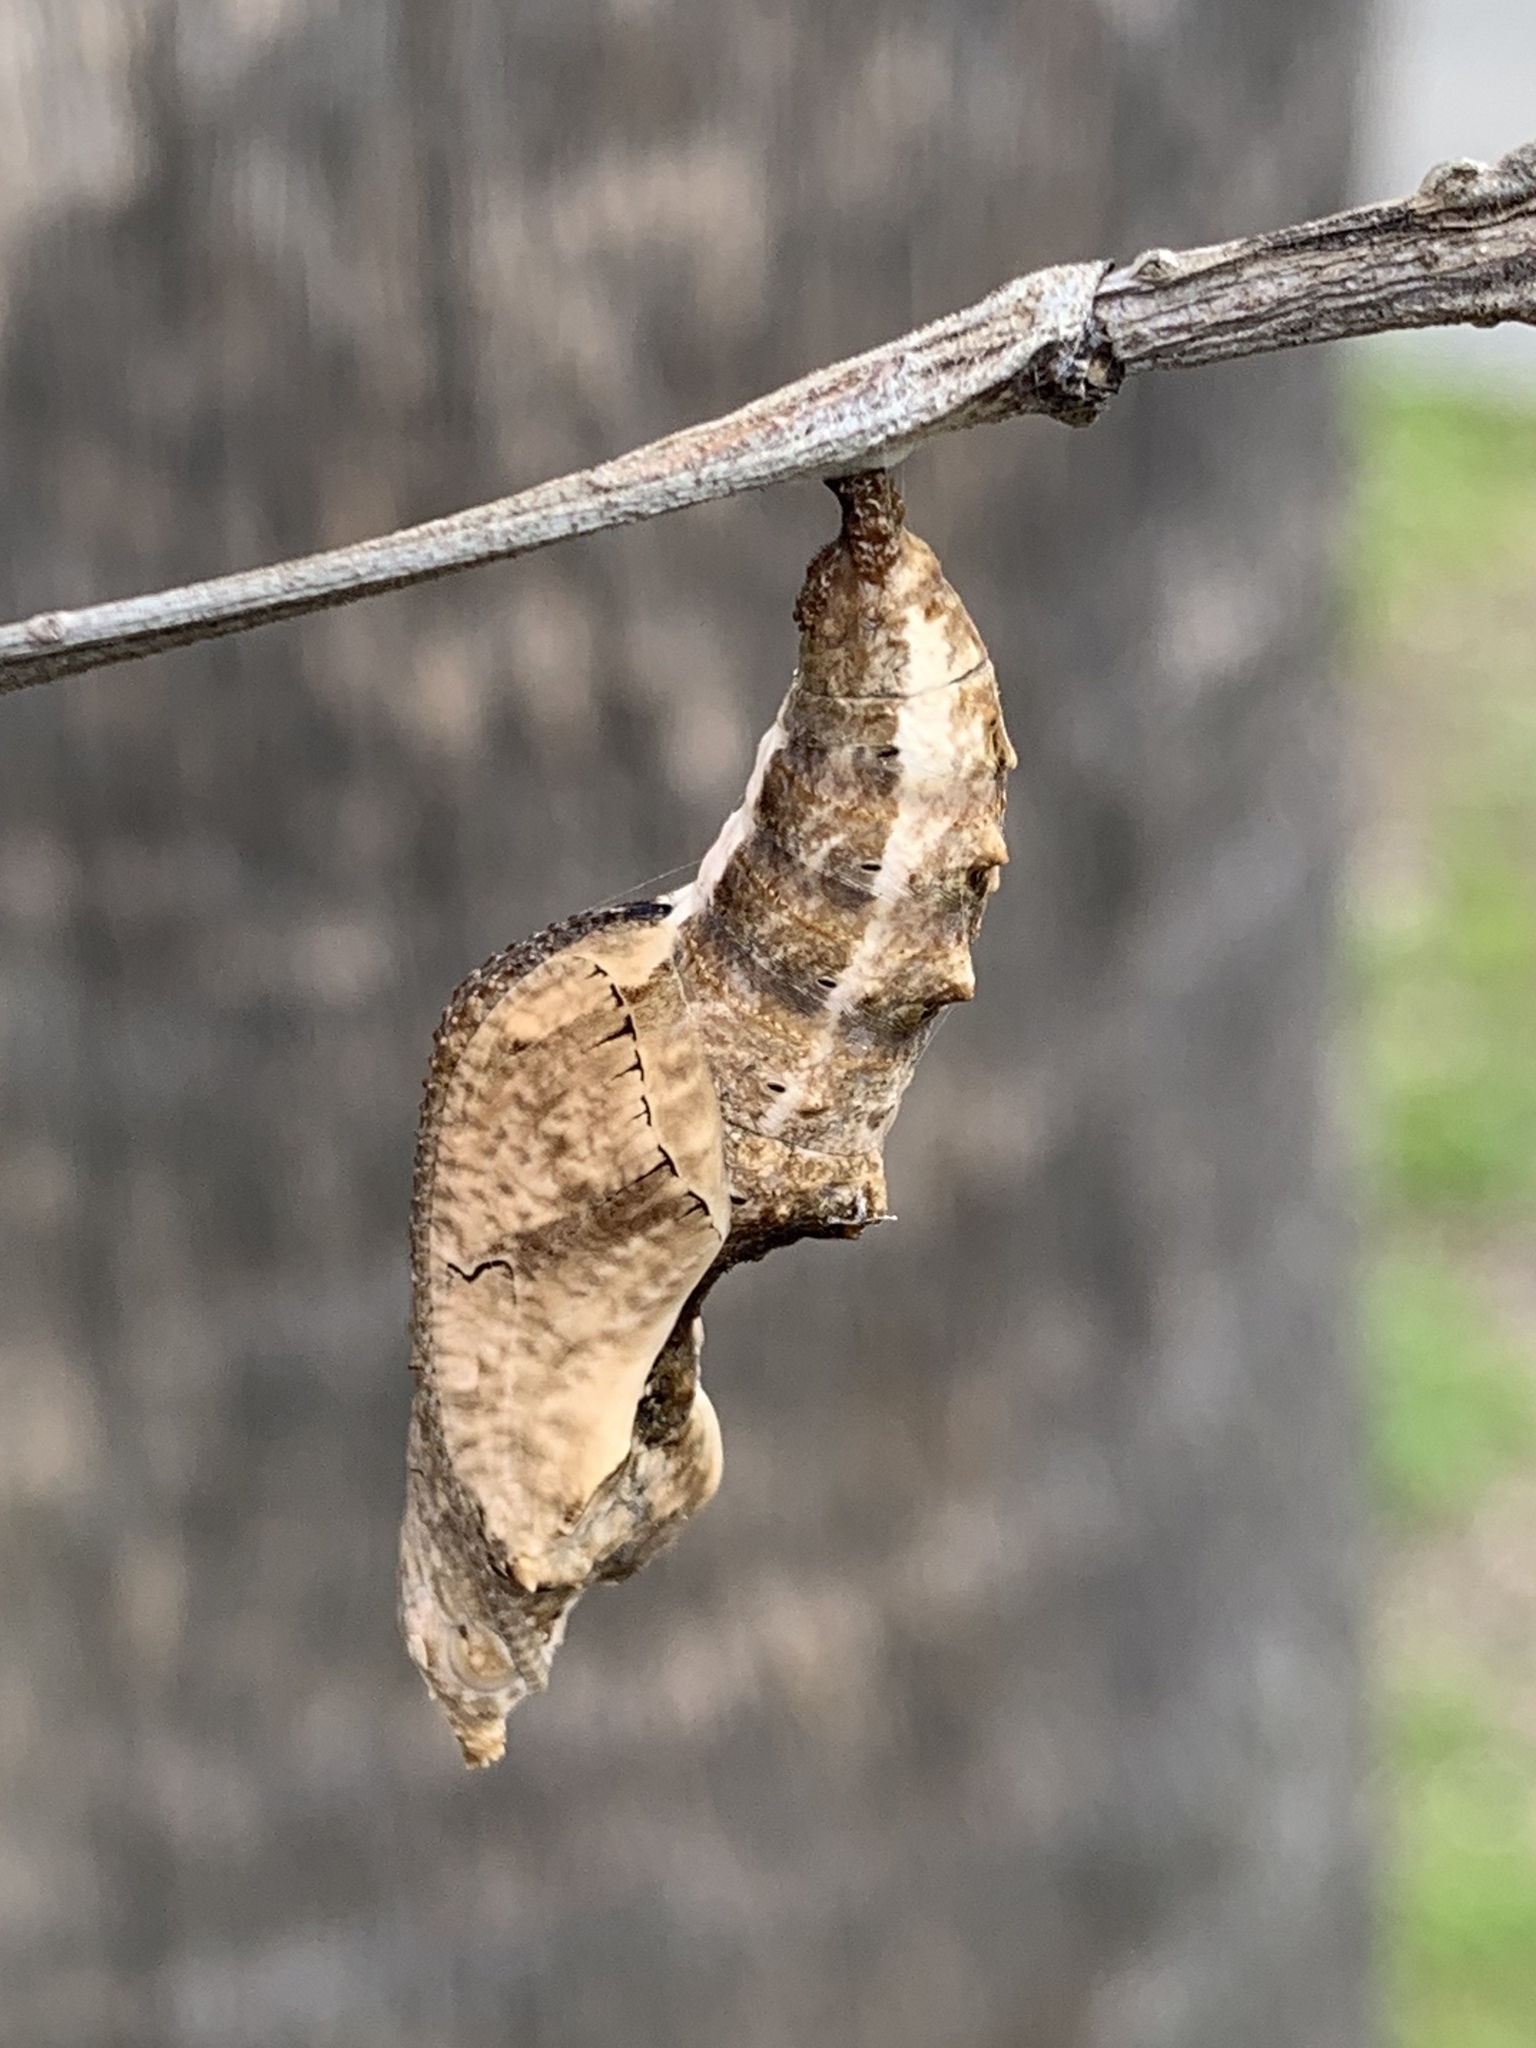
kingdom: Animalia
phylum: Arthropoda
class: Insecta
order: Lepidoptera
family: Nymphalidae
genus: Dione
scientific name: Dione vanillae
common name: Gulf fritillary
